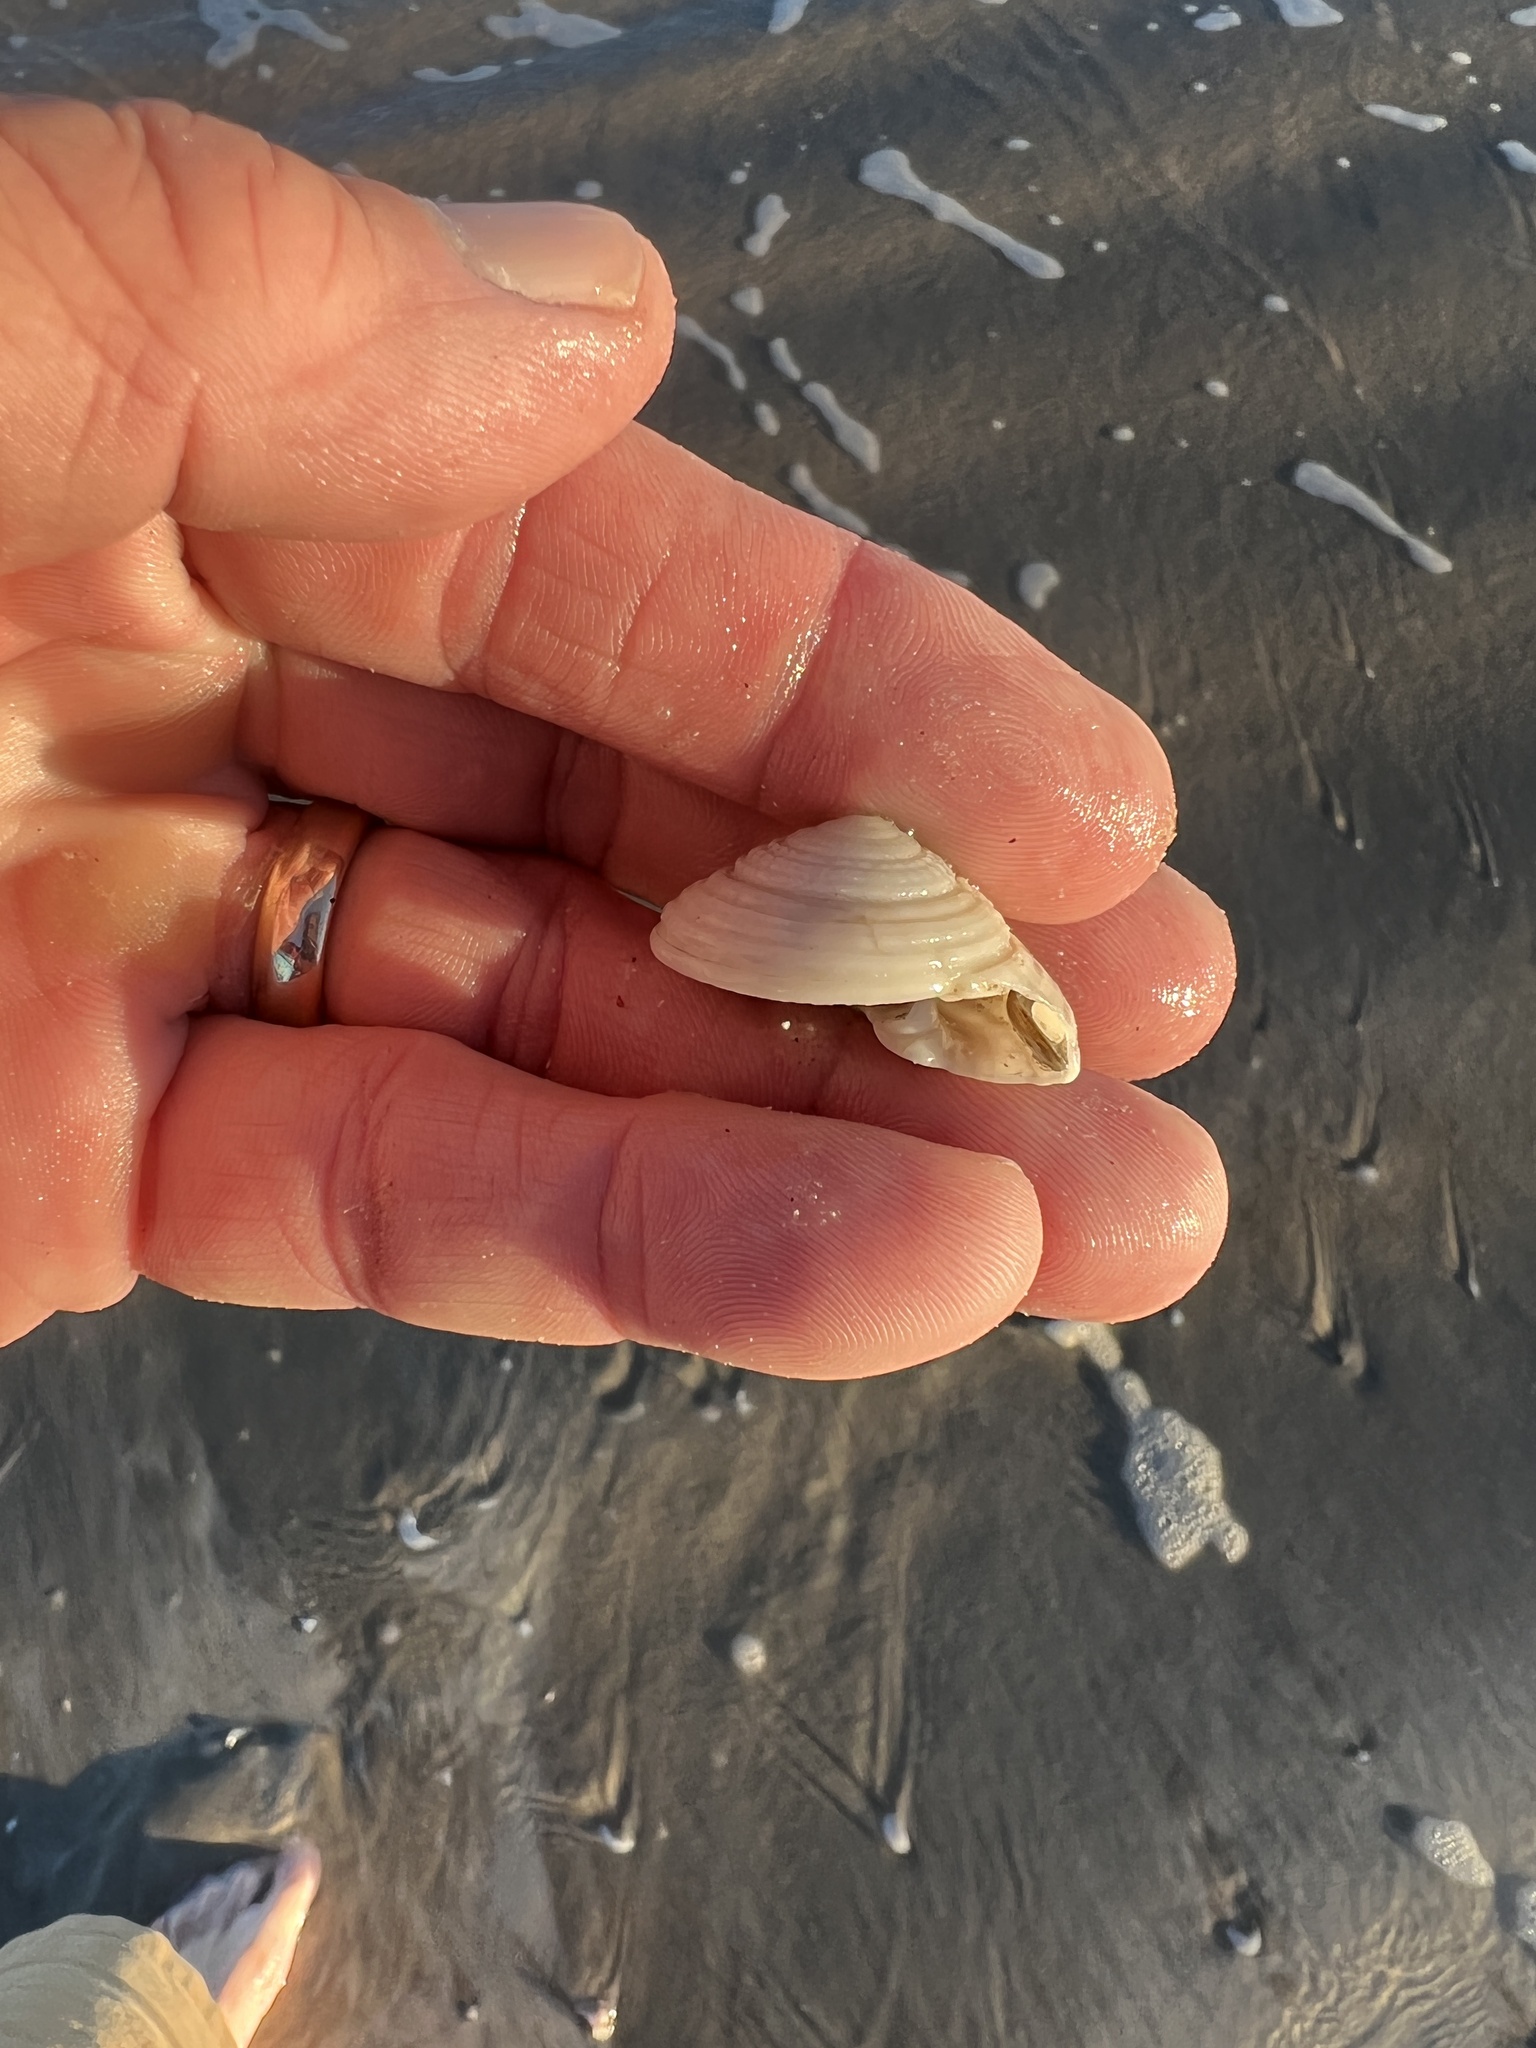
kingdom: Animalia
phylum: Mollusca
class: Gastropoda
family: Architectonicidae
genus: Architectonica
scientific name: Architectonica nobilis
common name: Common sundial
